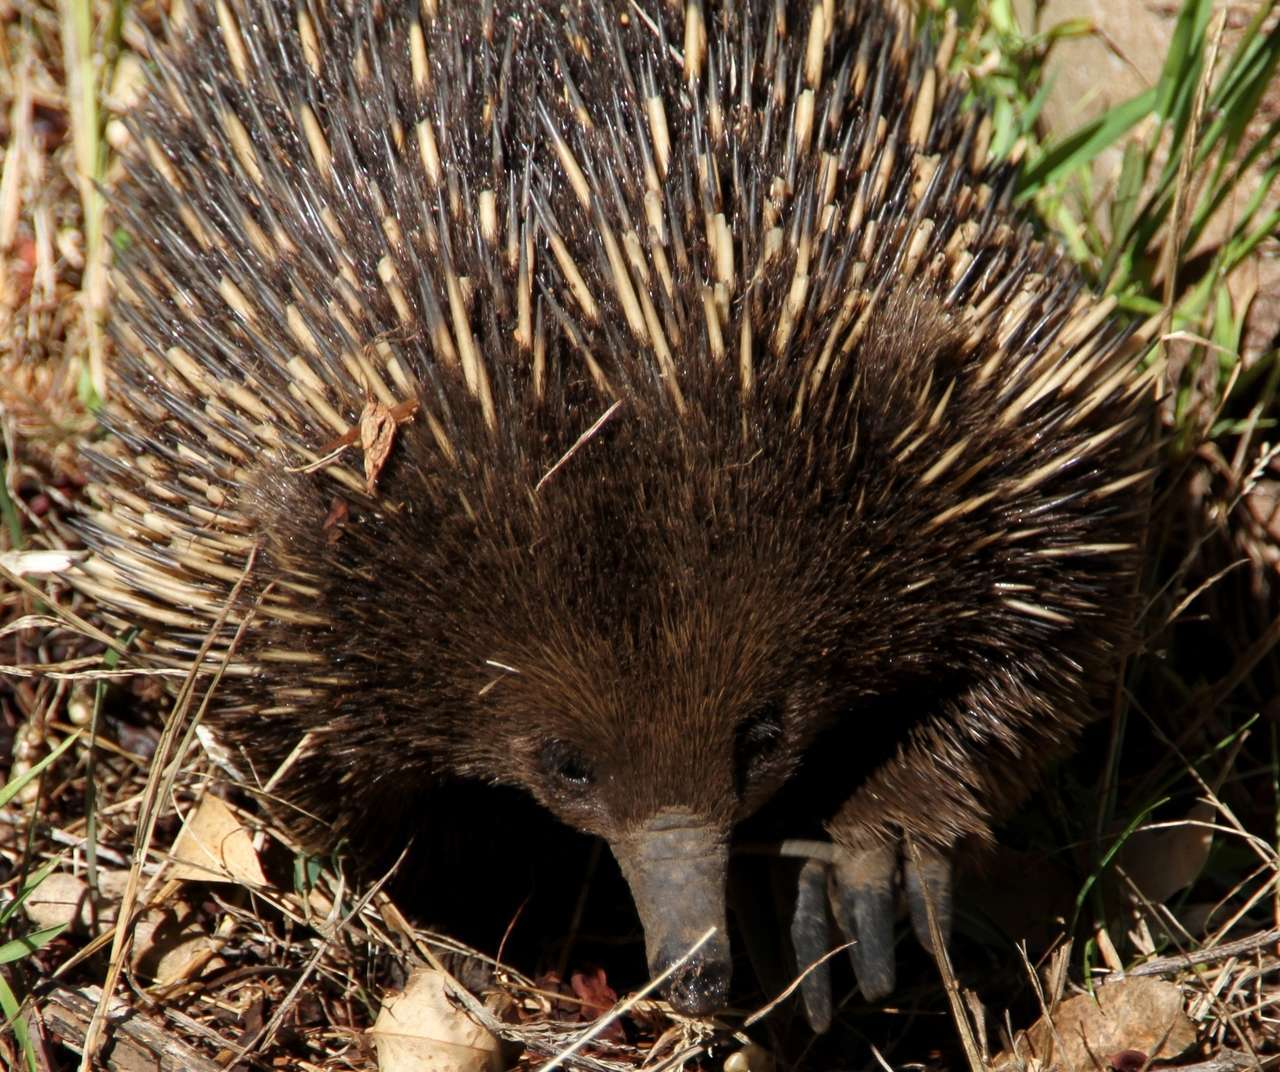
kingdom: Animalia
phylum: Chordata
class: Mammalia
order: Monotremata
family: Tachyglossidae
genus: Tachyglossus
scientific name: Tachyglossus aculeatus
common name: Short-beaked echidna
